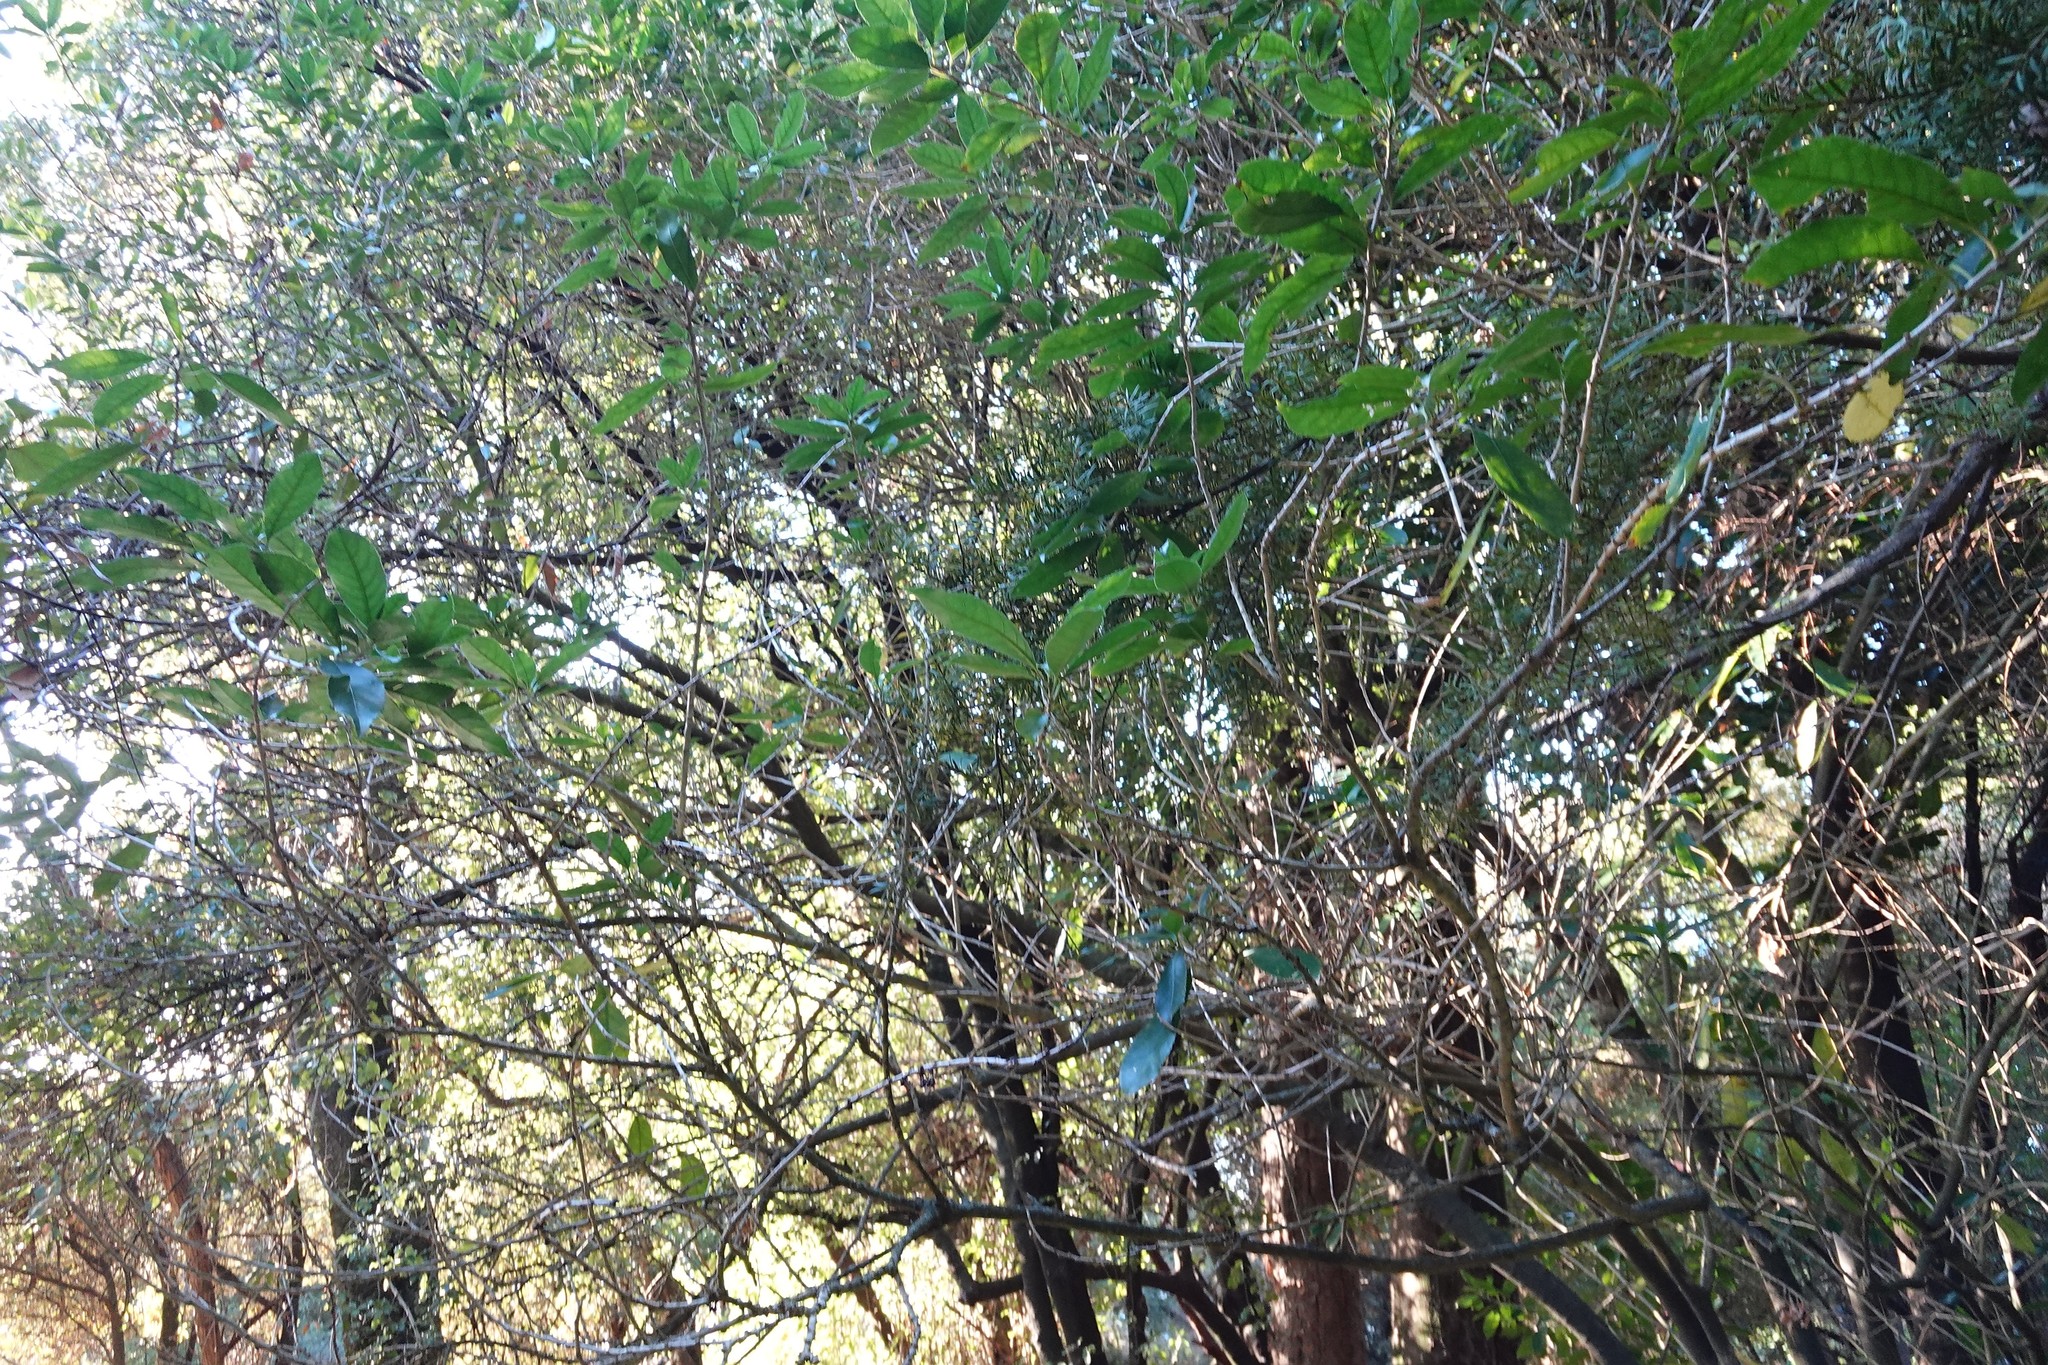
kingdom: Plantae
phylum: Tracheophyta
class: Magnoliopsida
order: Malpighiales
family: Violaceae
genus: Melicytus
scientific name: Melicytus ramiflorus
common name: Mahoe
